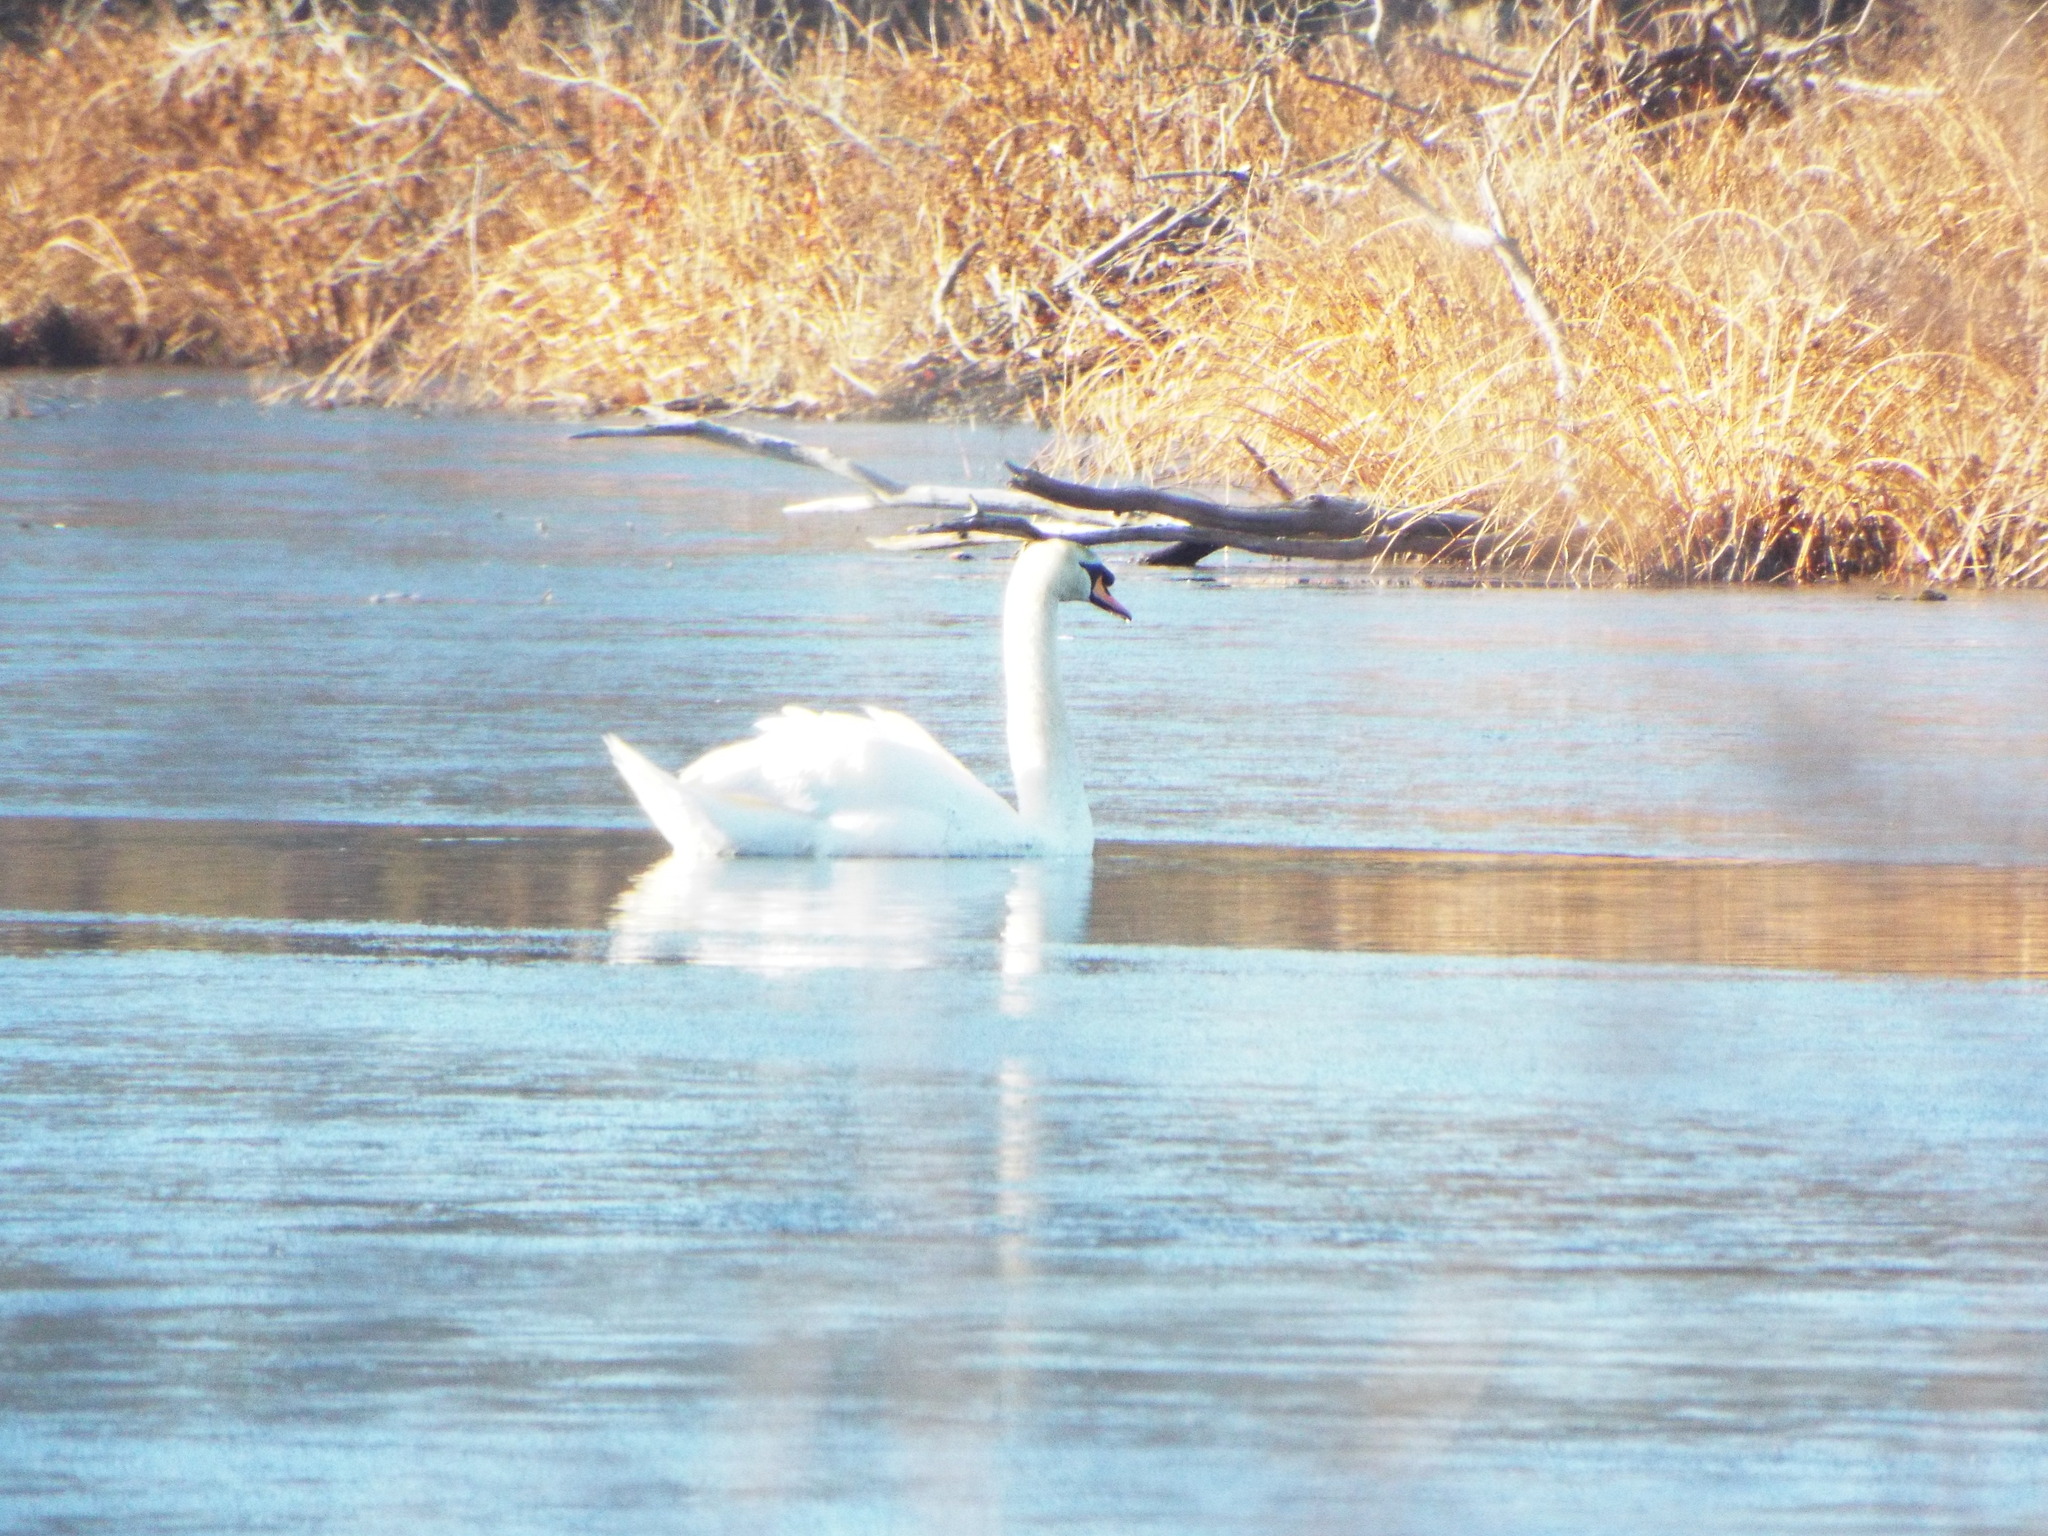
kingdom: Animalia
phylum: Chordata
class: Aves
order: Anseriformes
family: Anatidae
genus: Cygnus
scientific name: Cygnus olor
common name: Mute swan
